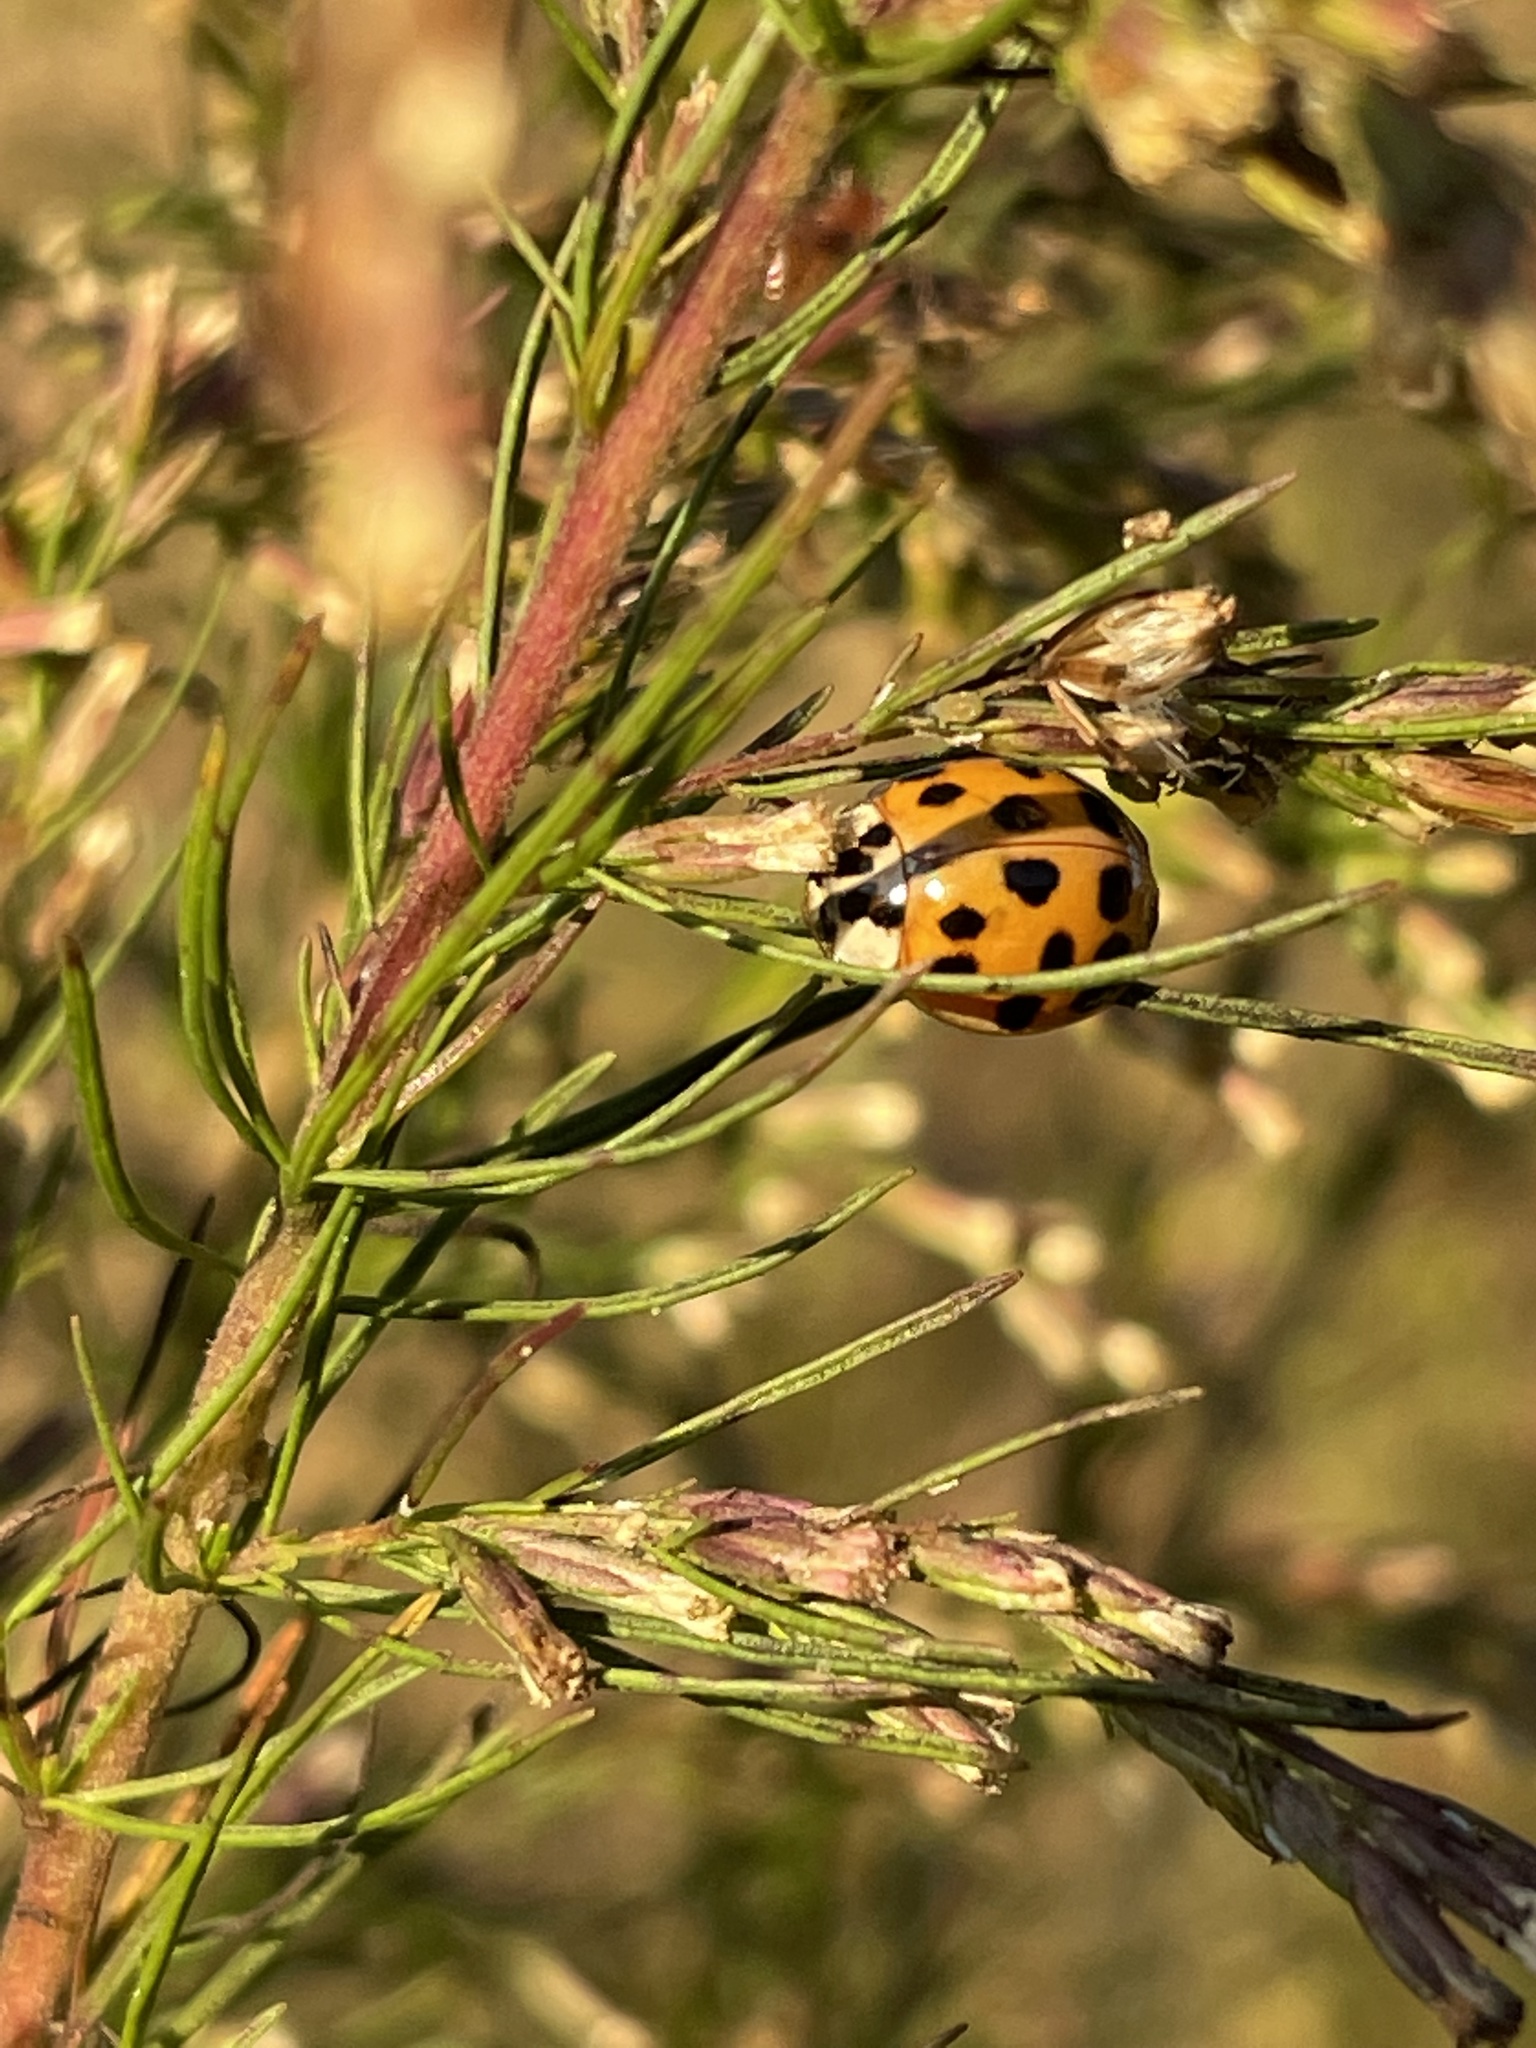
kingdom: Animalia
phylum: Arthropoda
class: Insecta
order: Coleoptera
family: Coccinellidae
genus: Harmonia
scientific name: Harmonia axyridis
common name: Harlequin ladybird
